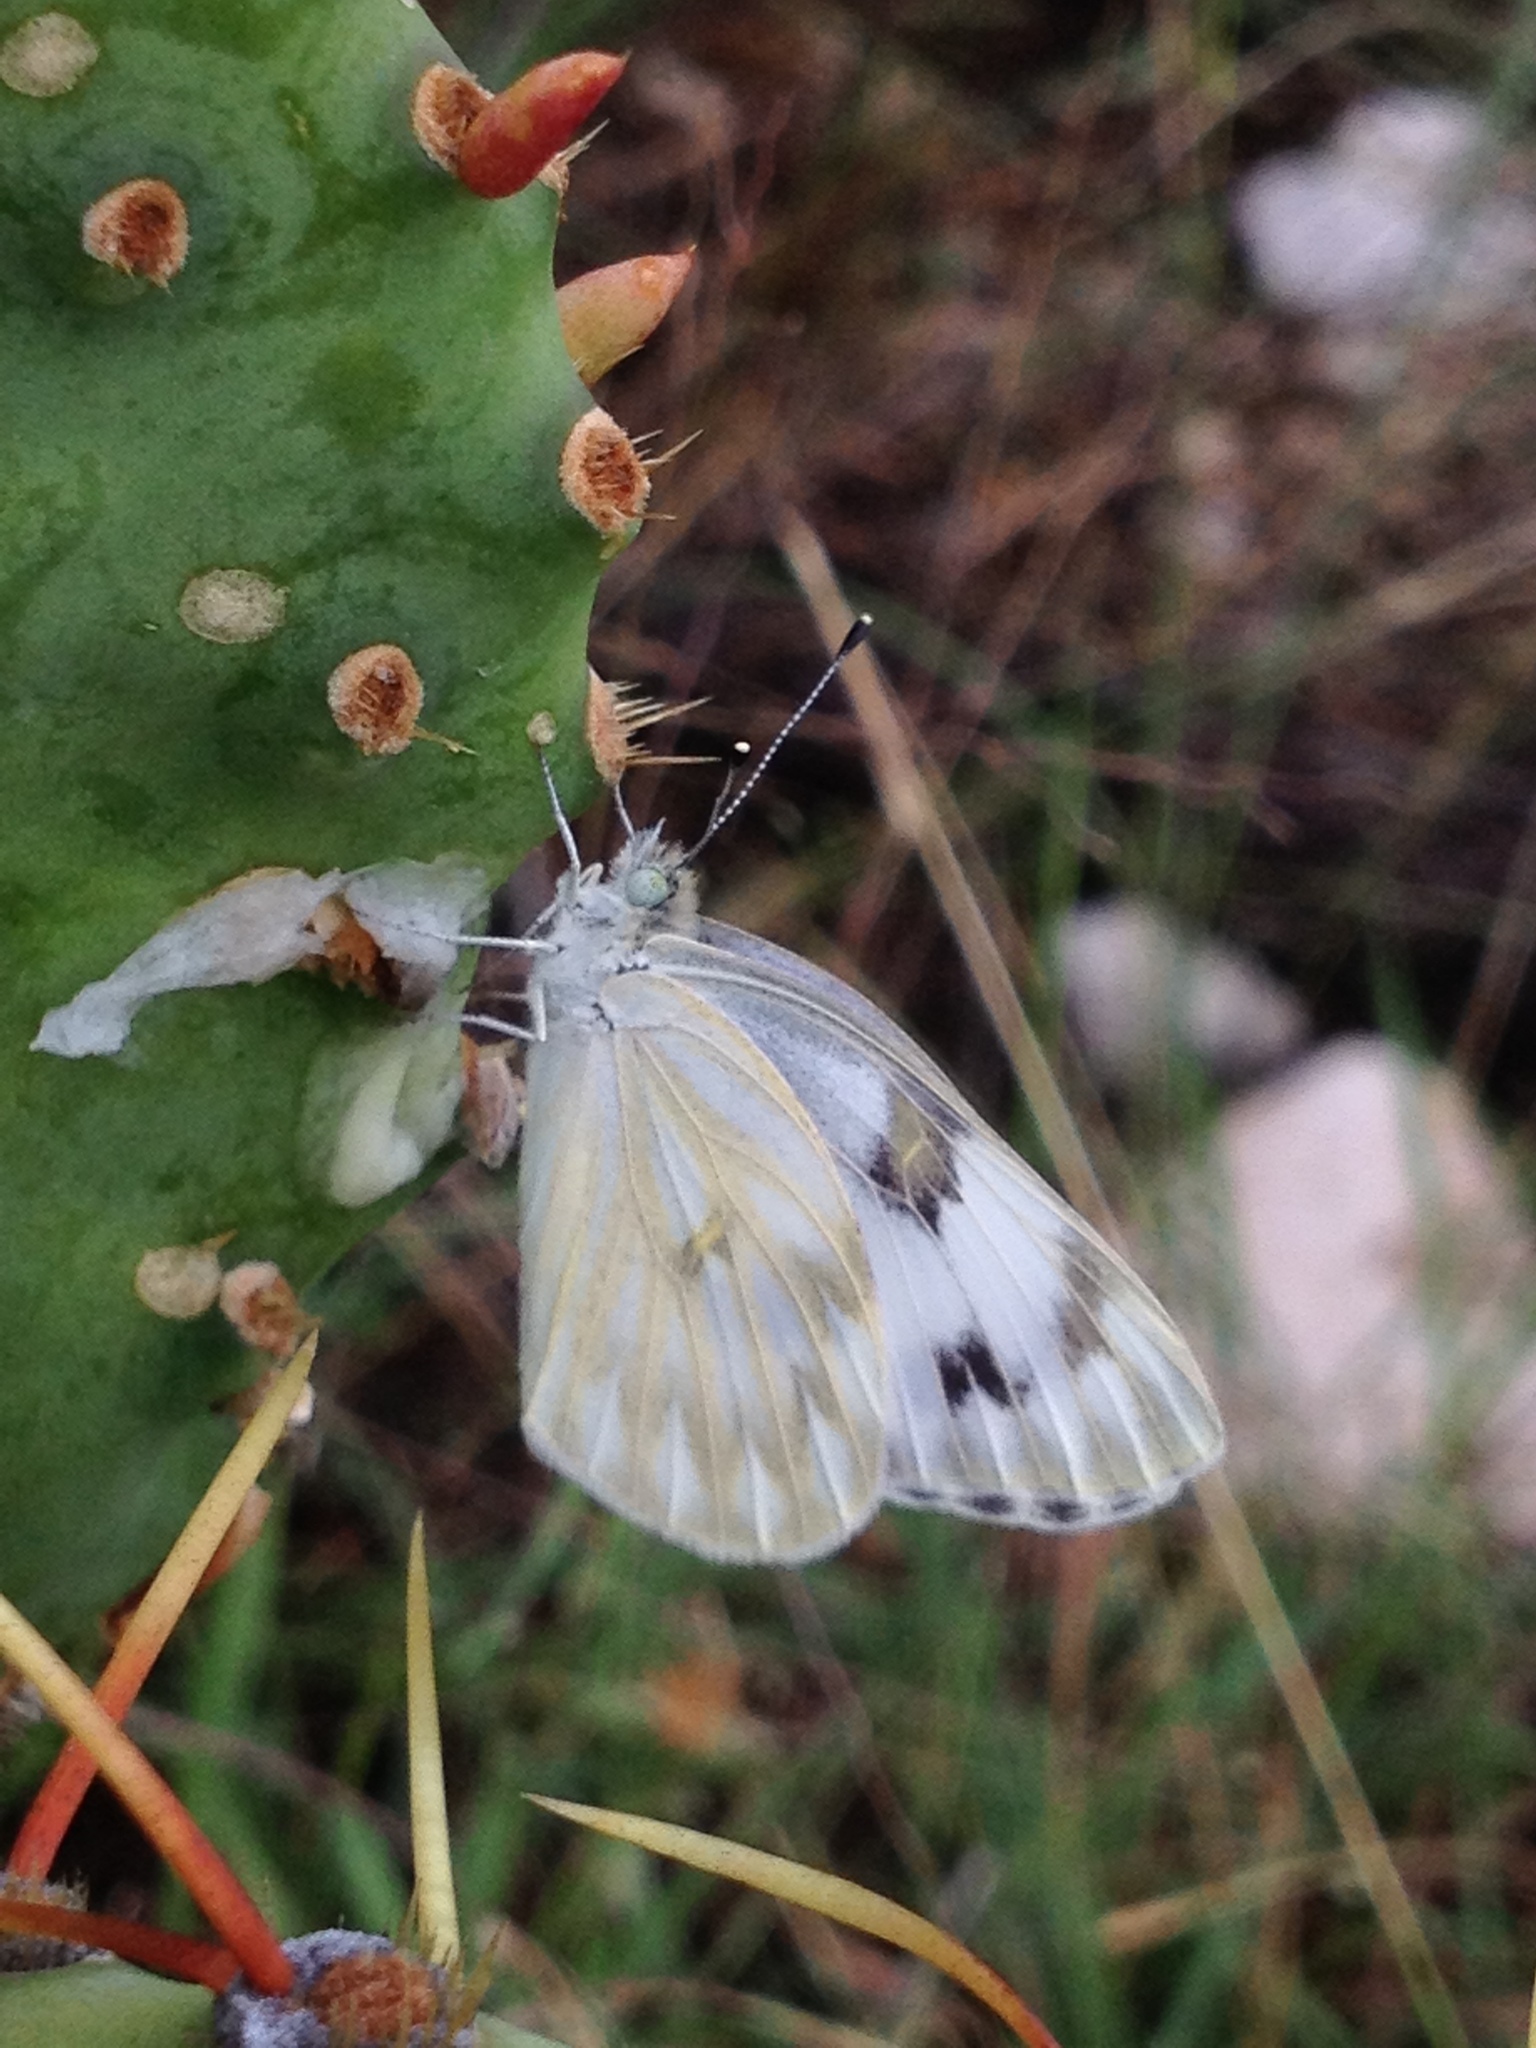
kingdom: Animalia
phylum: Arthropoda
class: Insecta
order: Lepidoptera
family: Pieridae
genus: Pontia
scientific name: Pontia protodice
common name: Checkered white
